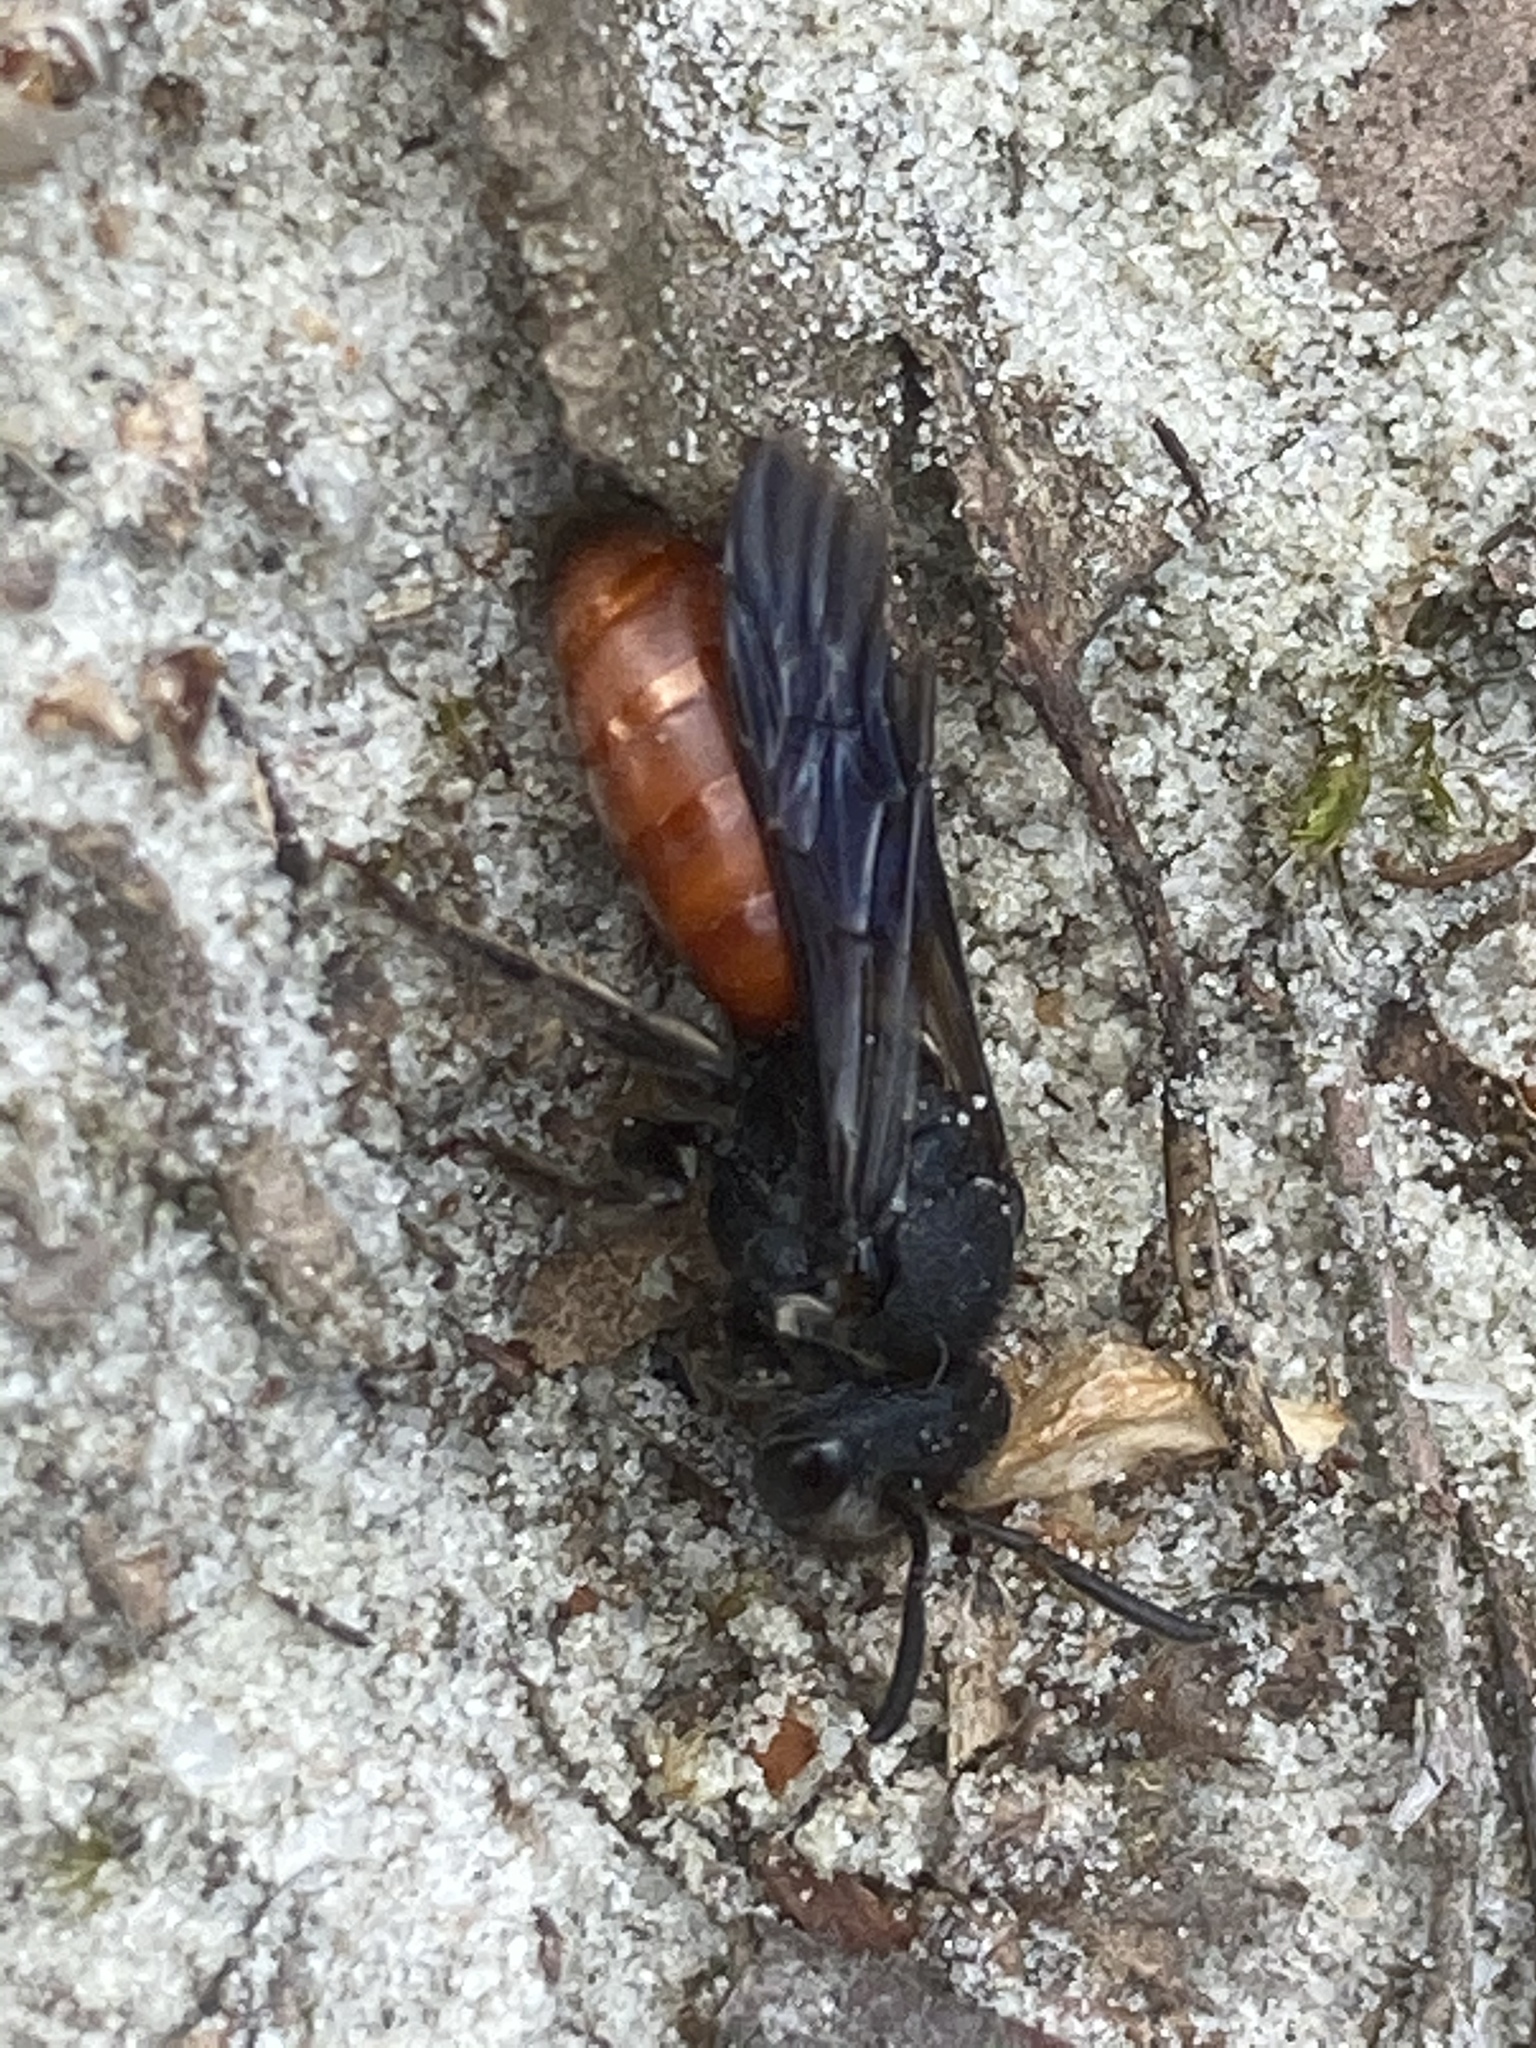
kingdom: Animalia
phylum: Arthropoda
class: Insecta
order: Hymenoptera
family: Halictidae
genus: Sphecodes
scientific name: Sphecodes albilabris
